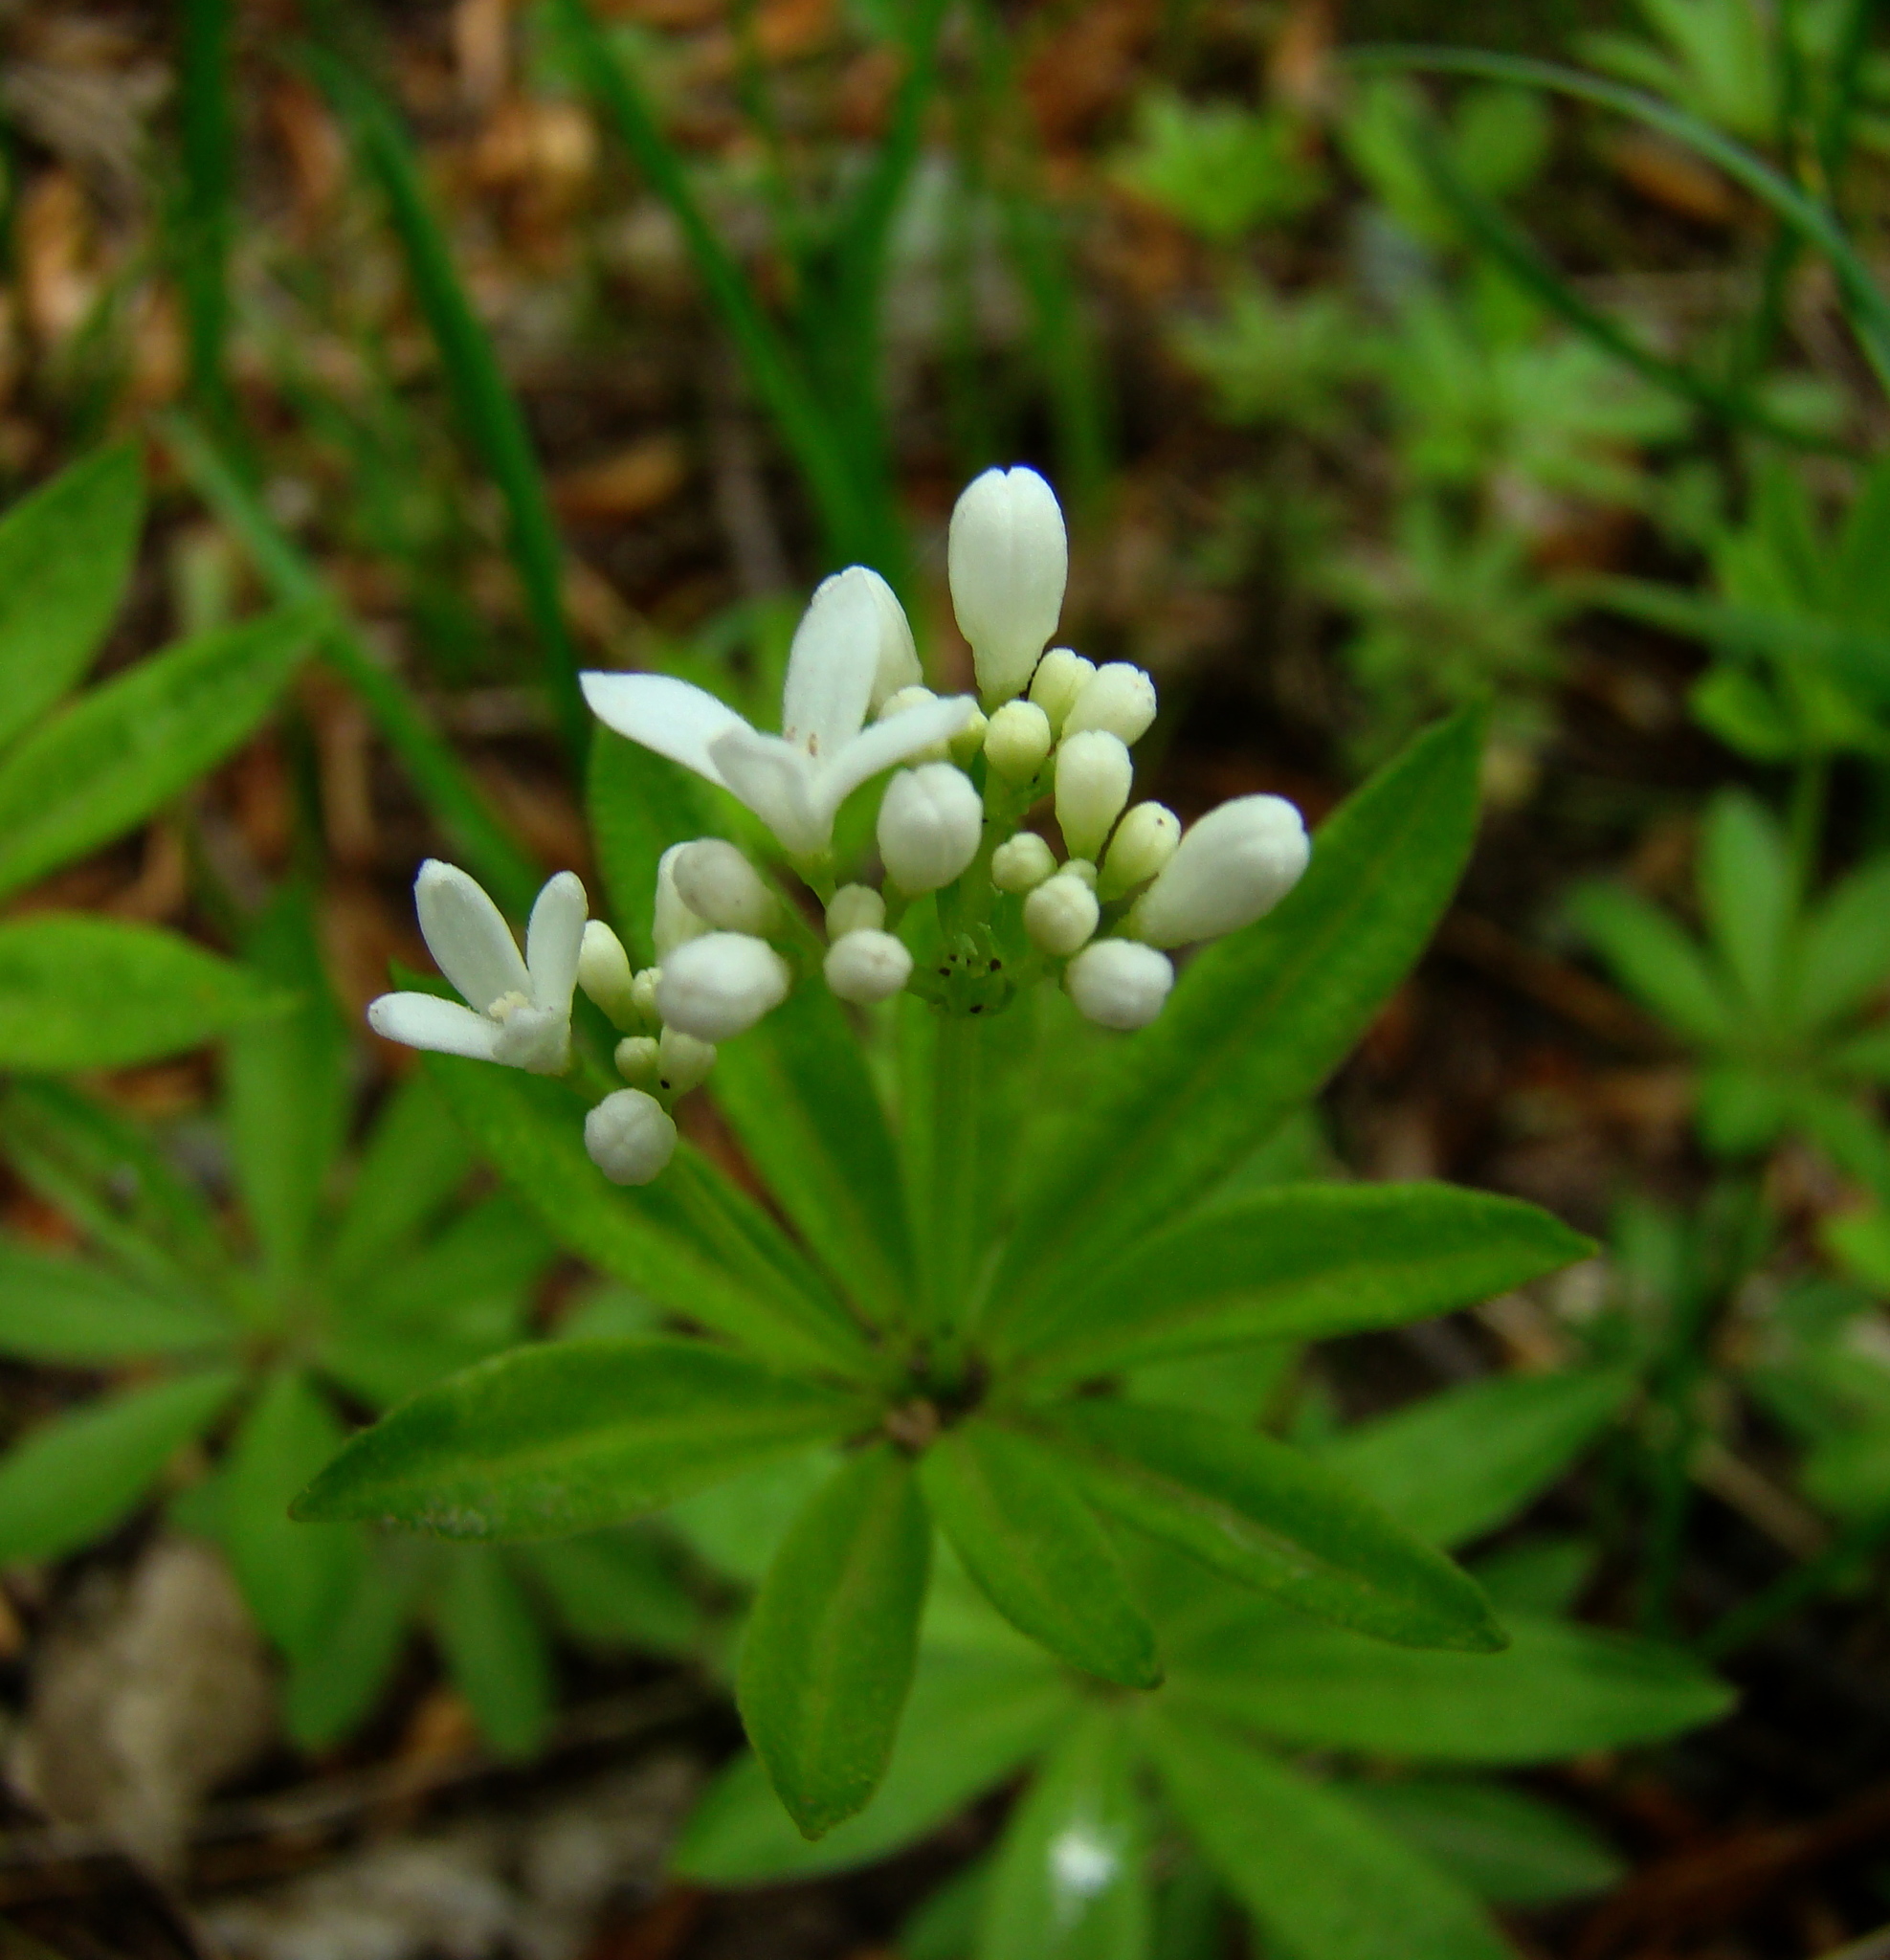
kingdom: Plantae
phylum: Tracheophyta
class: Magnoliopsida
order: Gentianales
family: Rubiaceae
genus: Galium
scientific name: Galium odoratum
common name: Sweet woodruff
